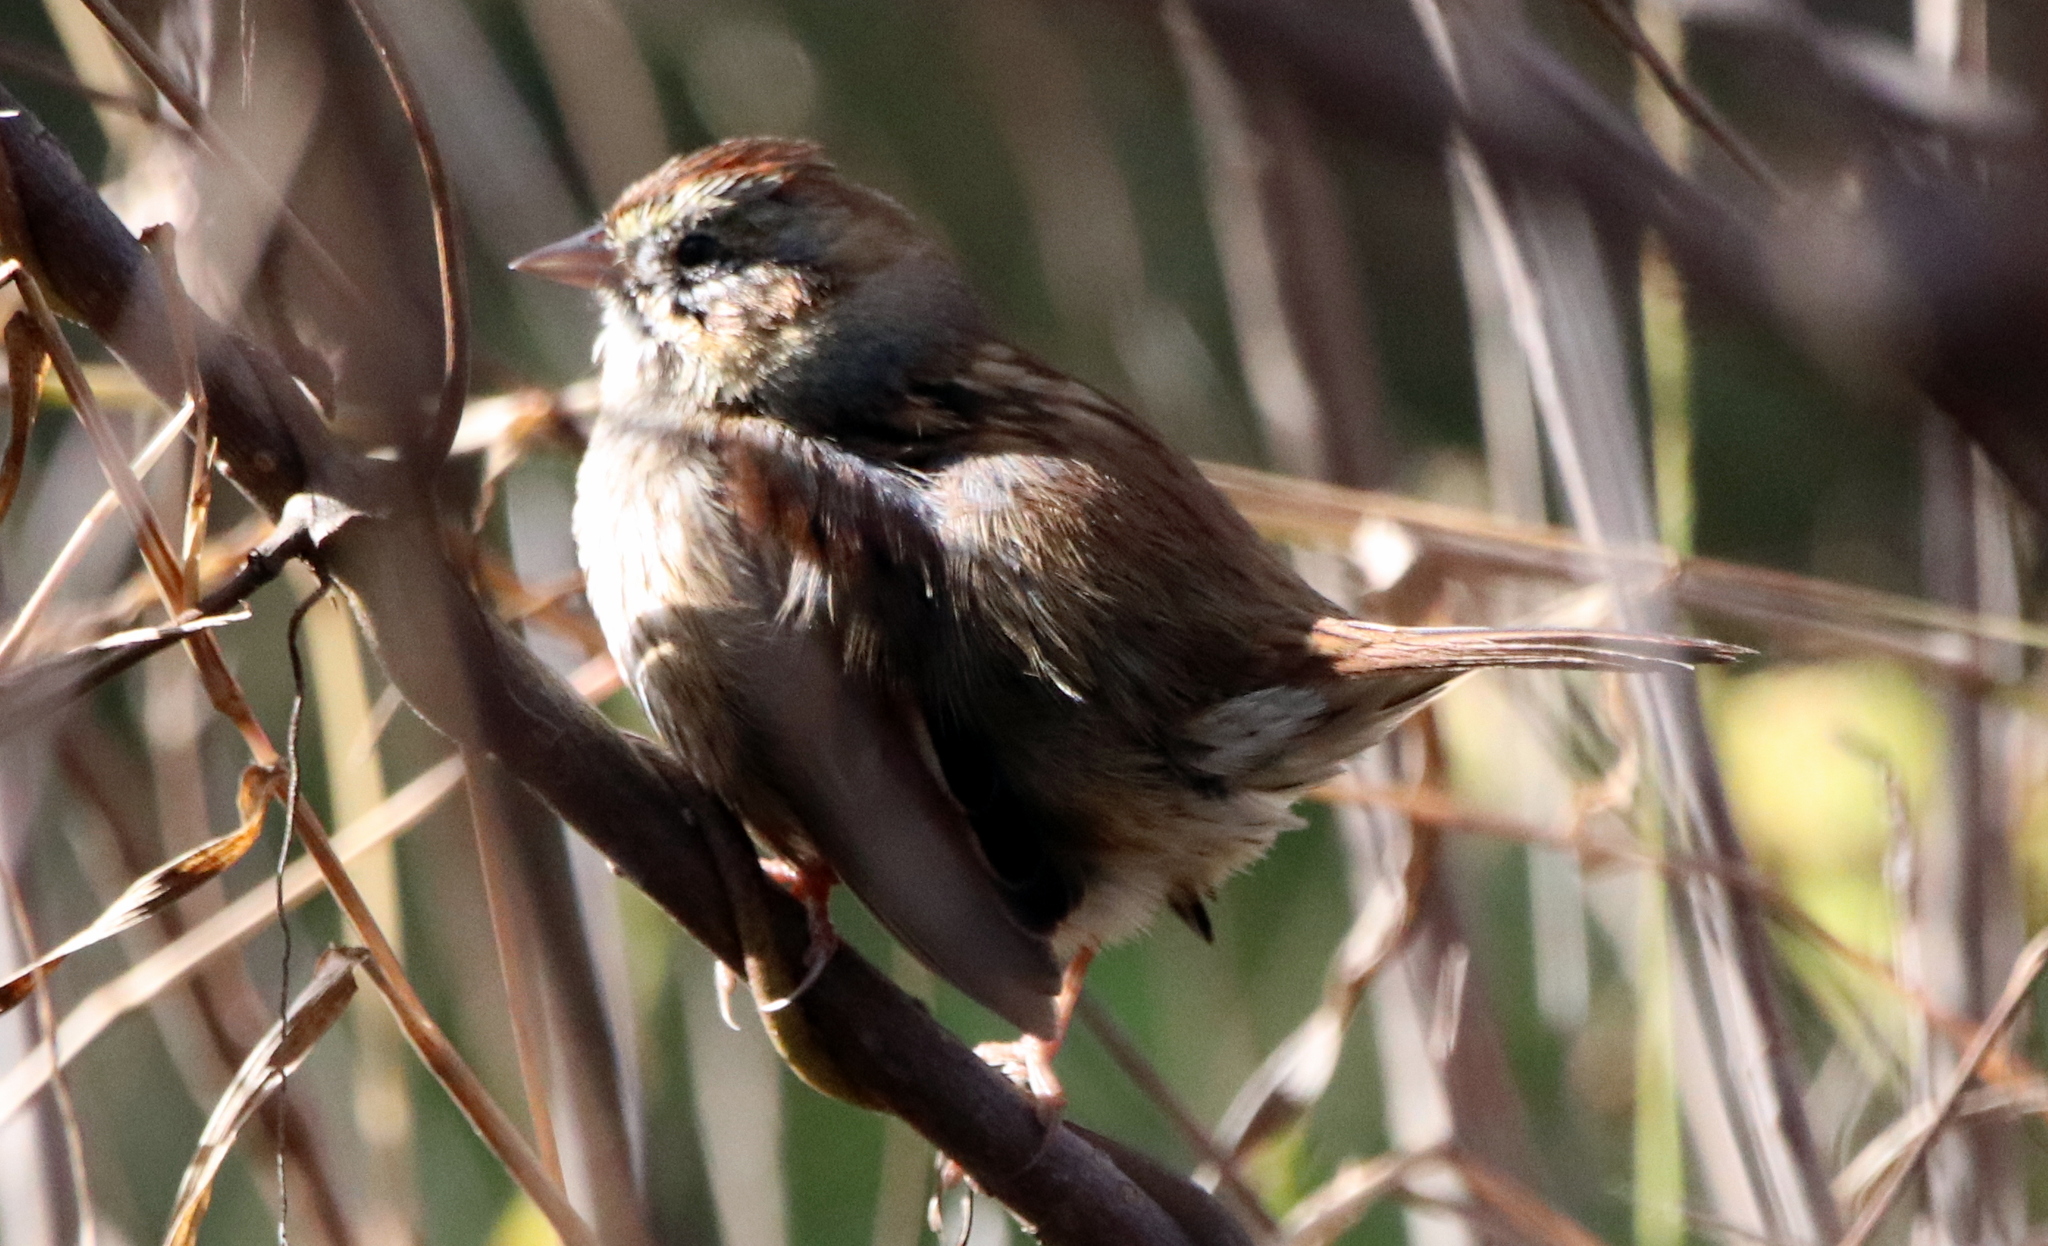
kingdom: Animalia
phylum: Chordata
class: Aves
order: Passeriformes
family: Passerellidae
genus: Melospiza
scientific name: Melospiza georgiana
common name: Swamp sparrow
